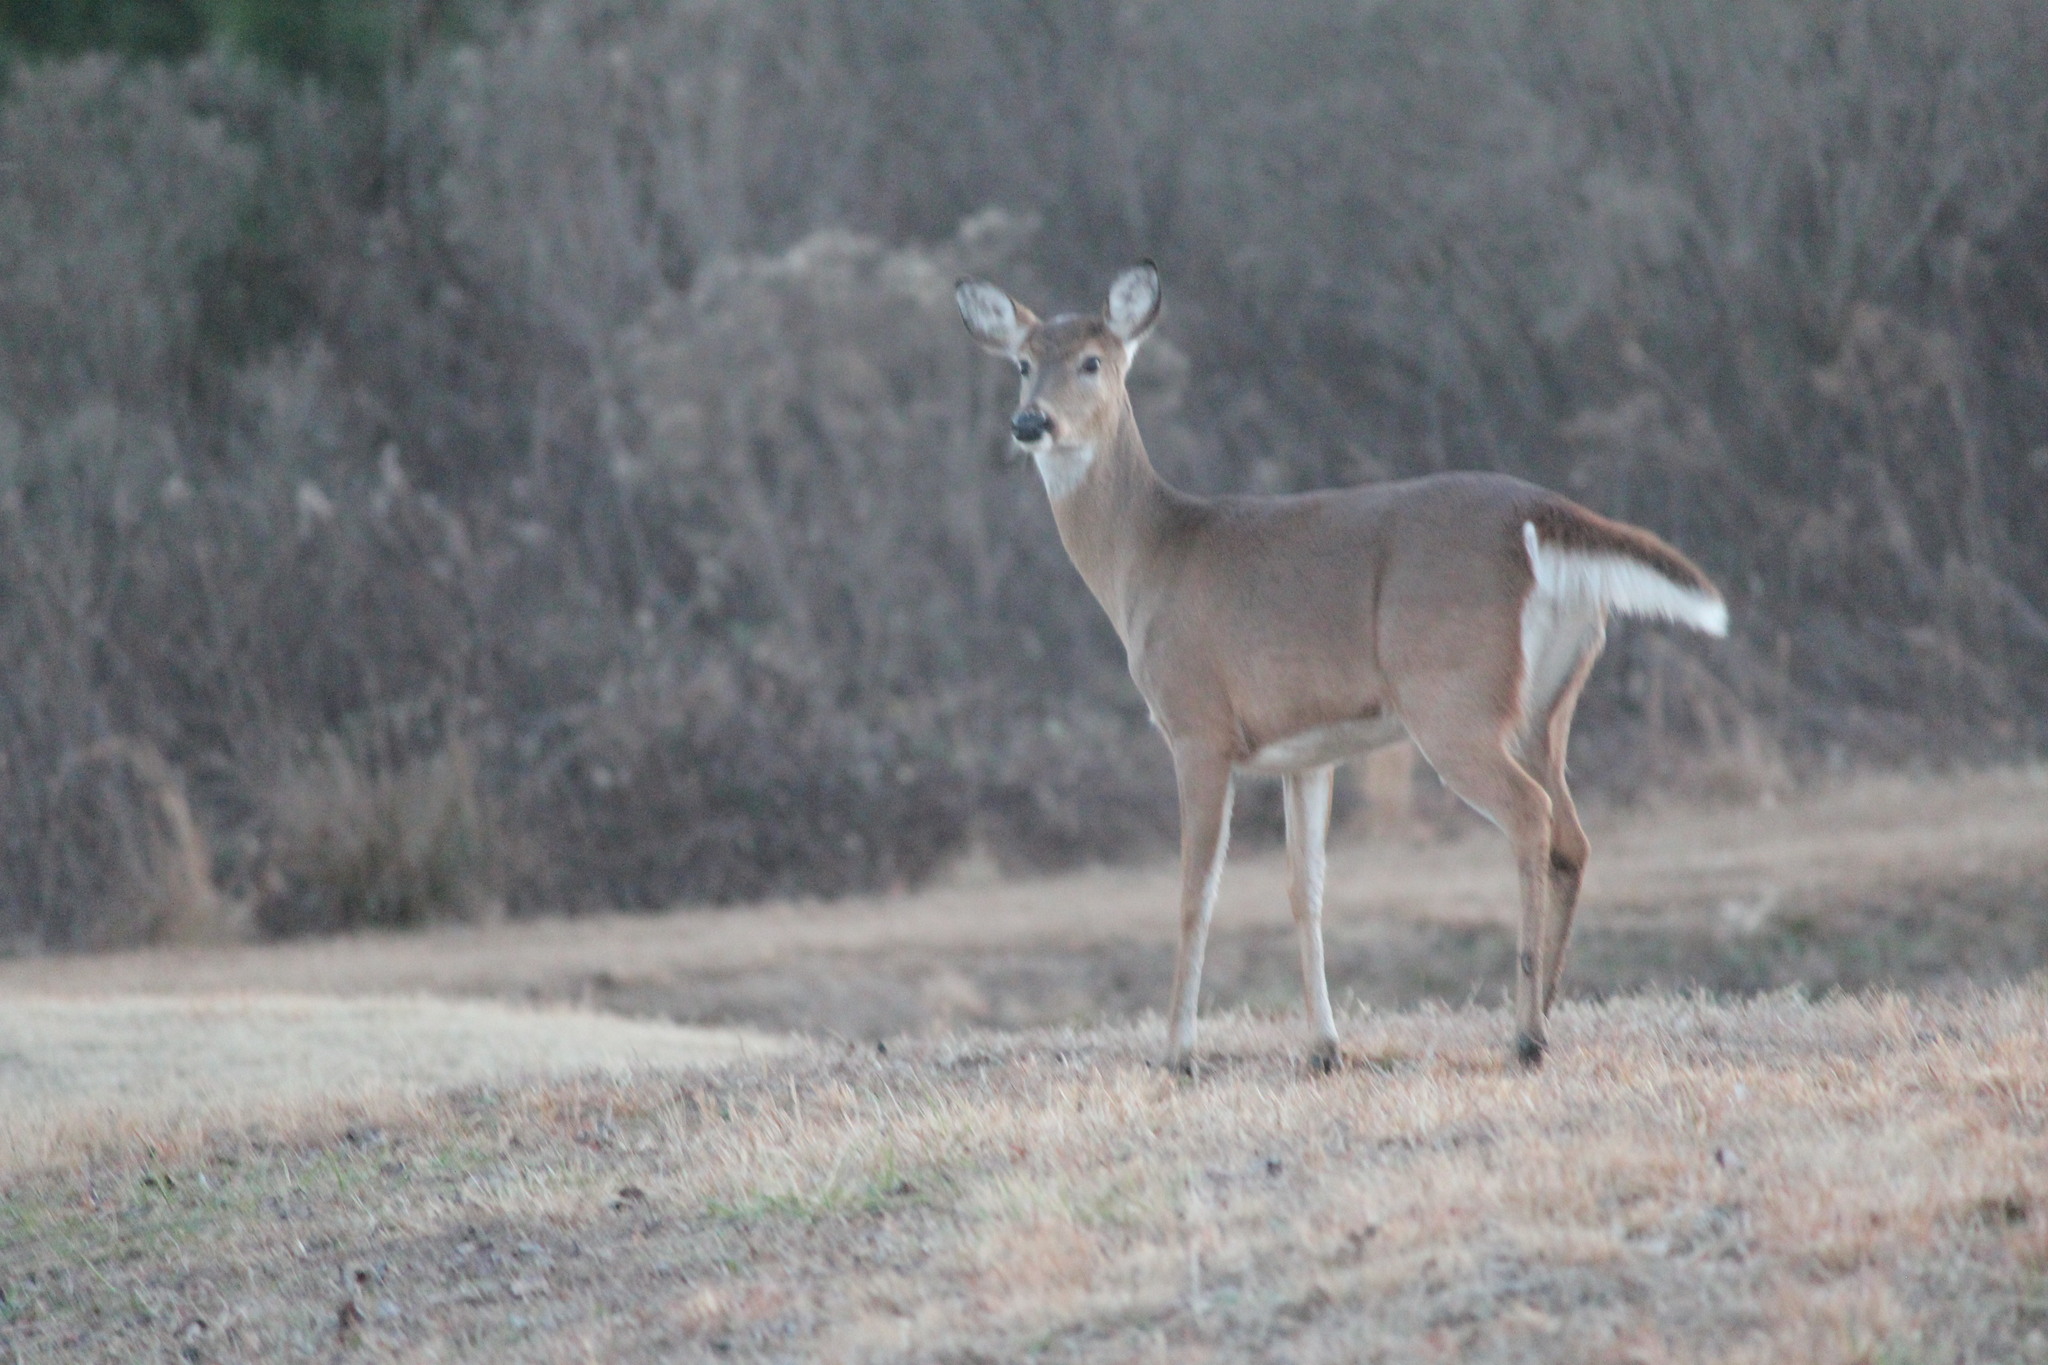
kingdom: Animalia
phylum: Chordata
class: Mammalia
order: Artiodactyla
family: Cervidae
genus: Odocoileus
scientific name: Odocoileus virginianus
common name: White-tailed deer
